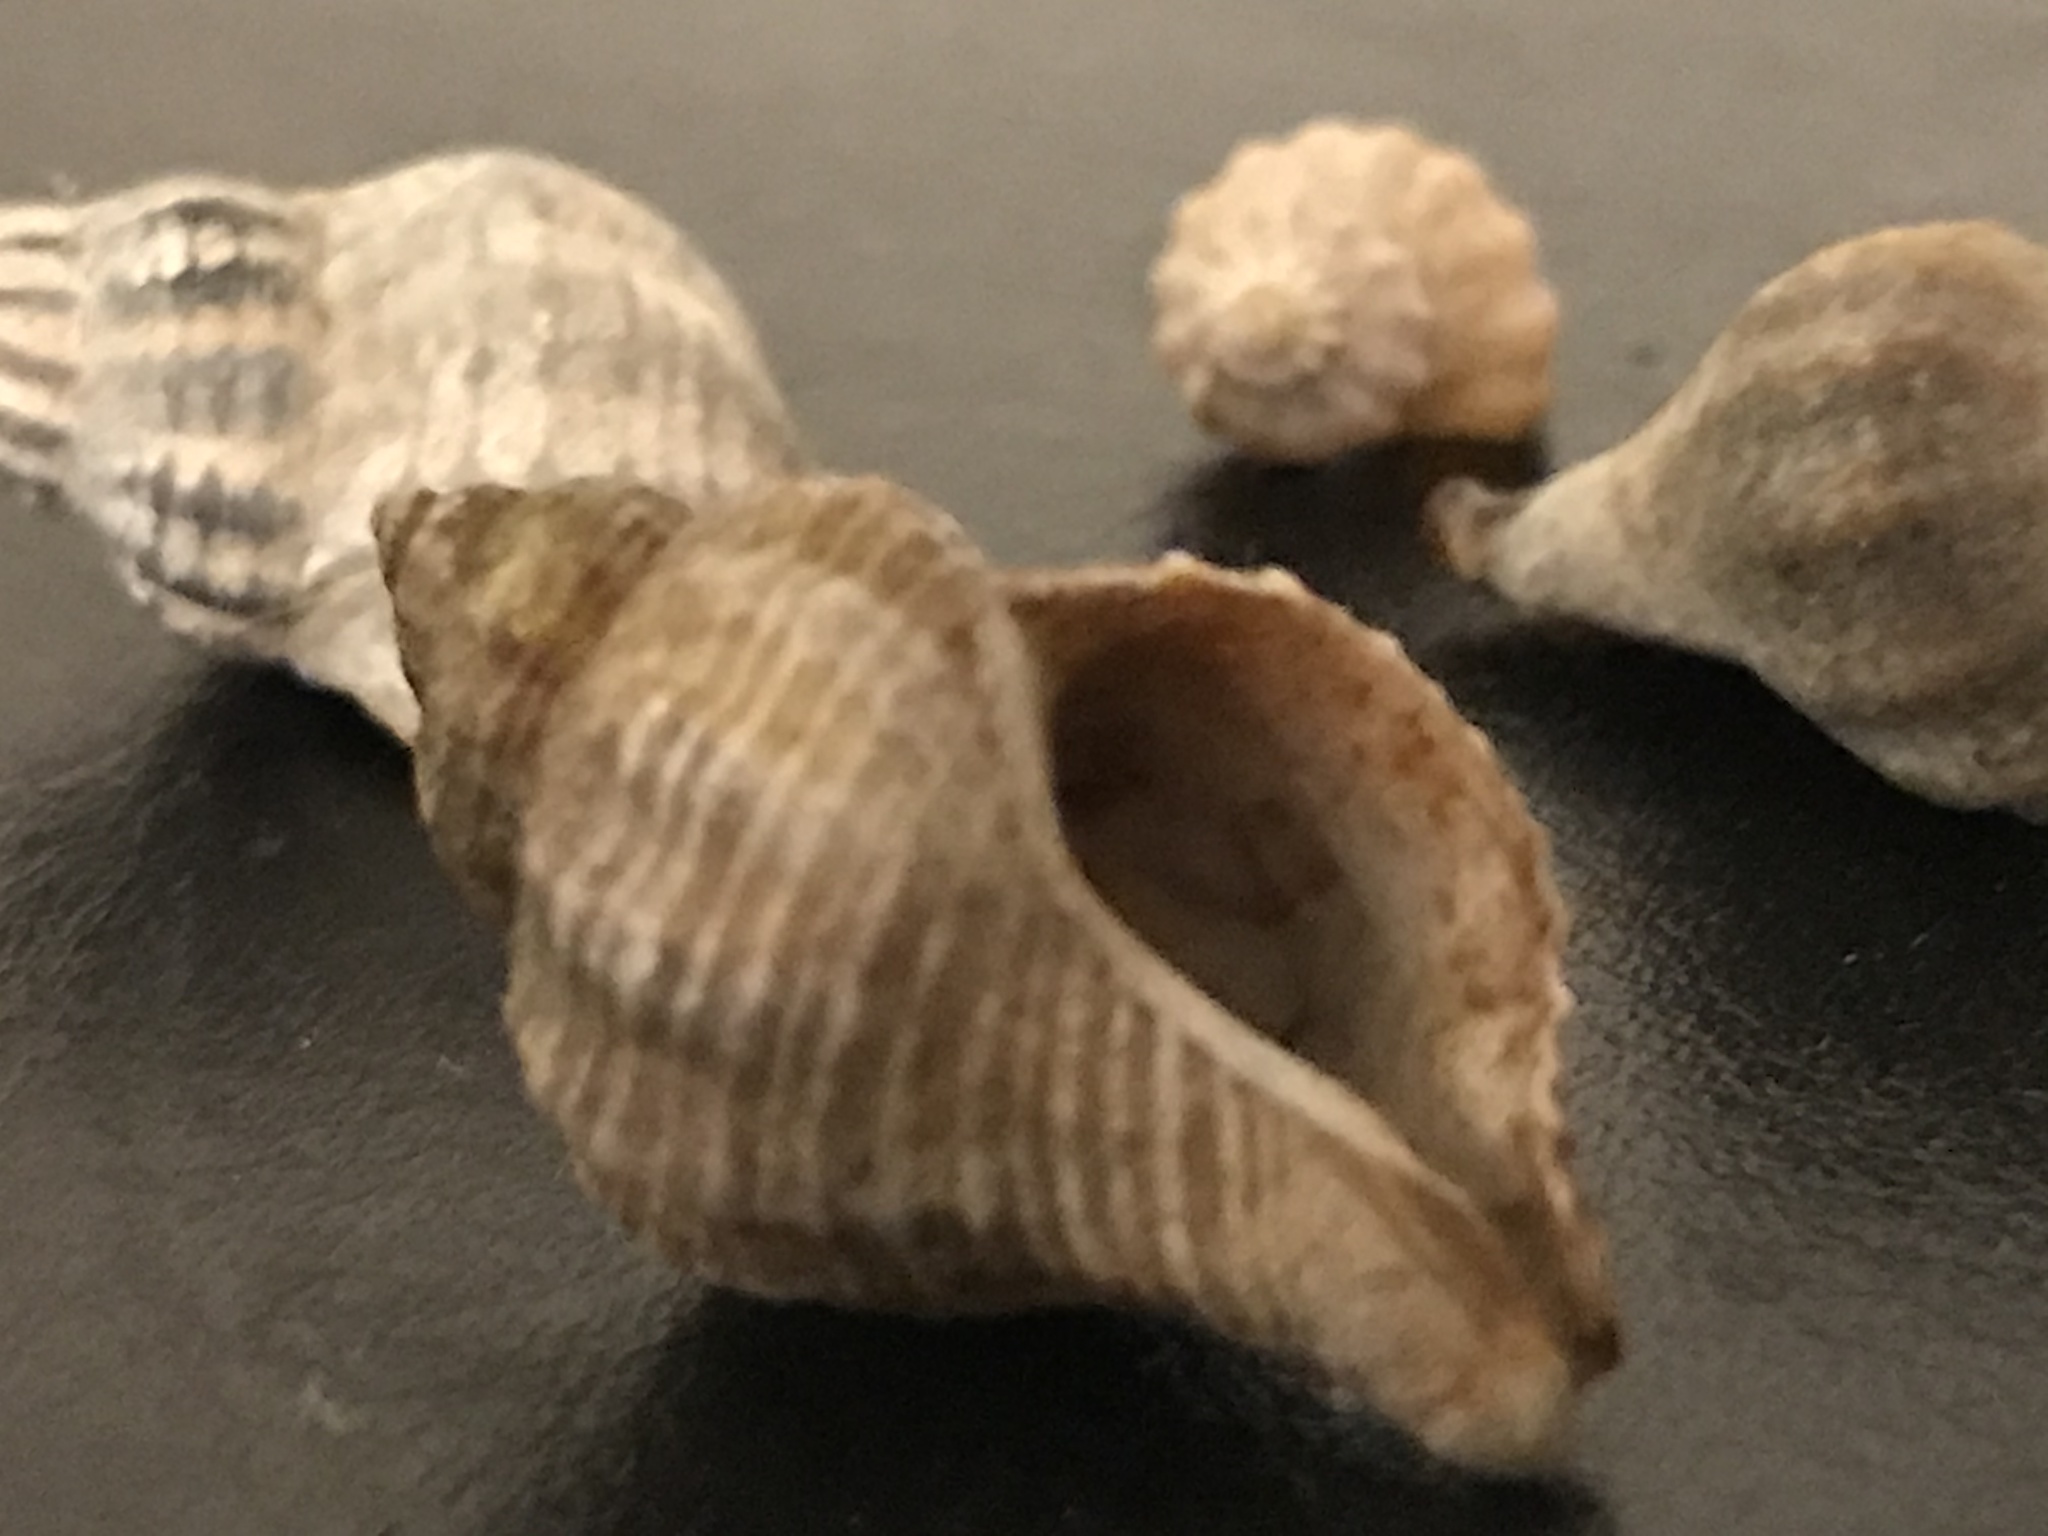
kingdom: Animalia
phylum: Mollusca
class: Gastropoda
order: Neogastropoda
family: Muricidae
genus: Urosalpinx
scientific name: Urosalpinx cinerea
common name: American sting winkle
